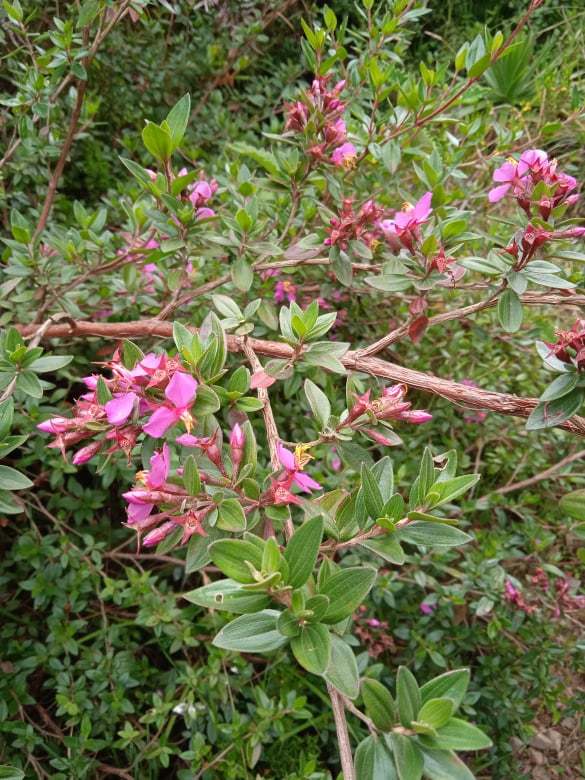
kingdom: Plantae
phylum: Tracheophyta
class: Magnoliopsida
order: Myrtales
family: Melastomataceae
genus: Monochaetum
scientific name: Monochaetum myrtoideum
